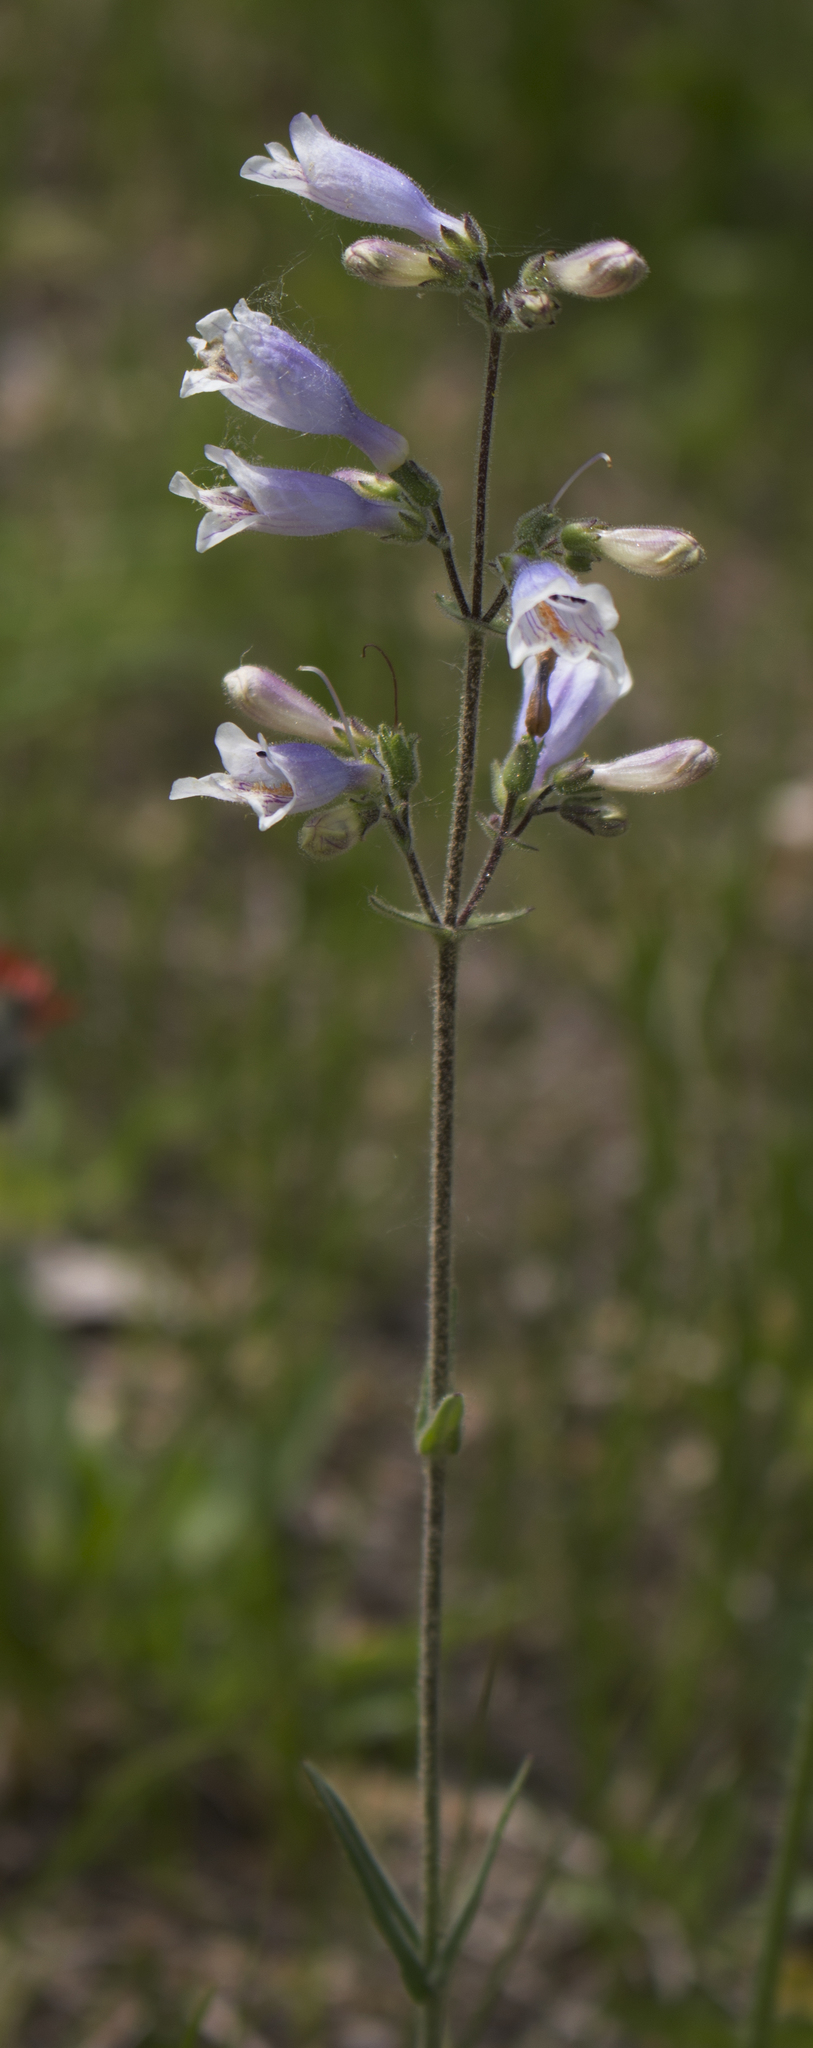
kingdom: Plantae
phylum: Tracheophyta
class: Magnoliopsida
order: Lamiales
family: Plantaginaceae
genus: Penstemon
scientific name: Penstemon gracilis
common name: Slender beardtongue
